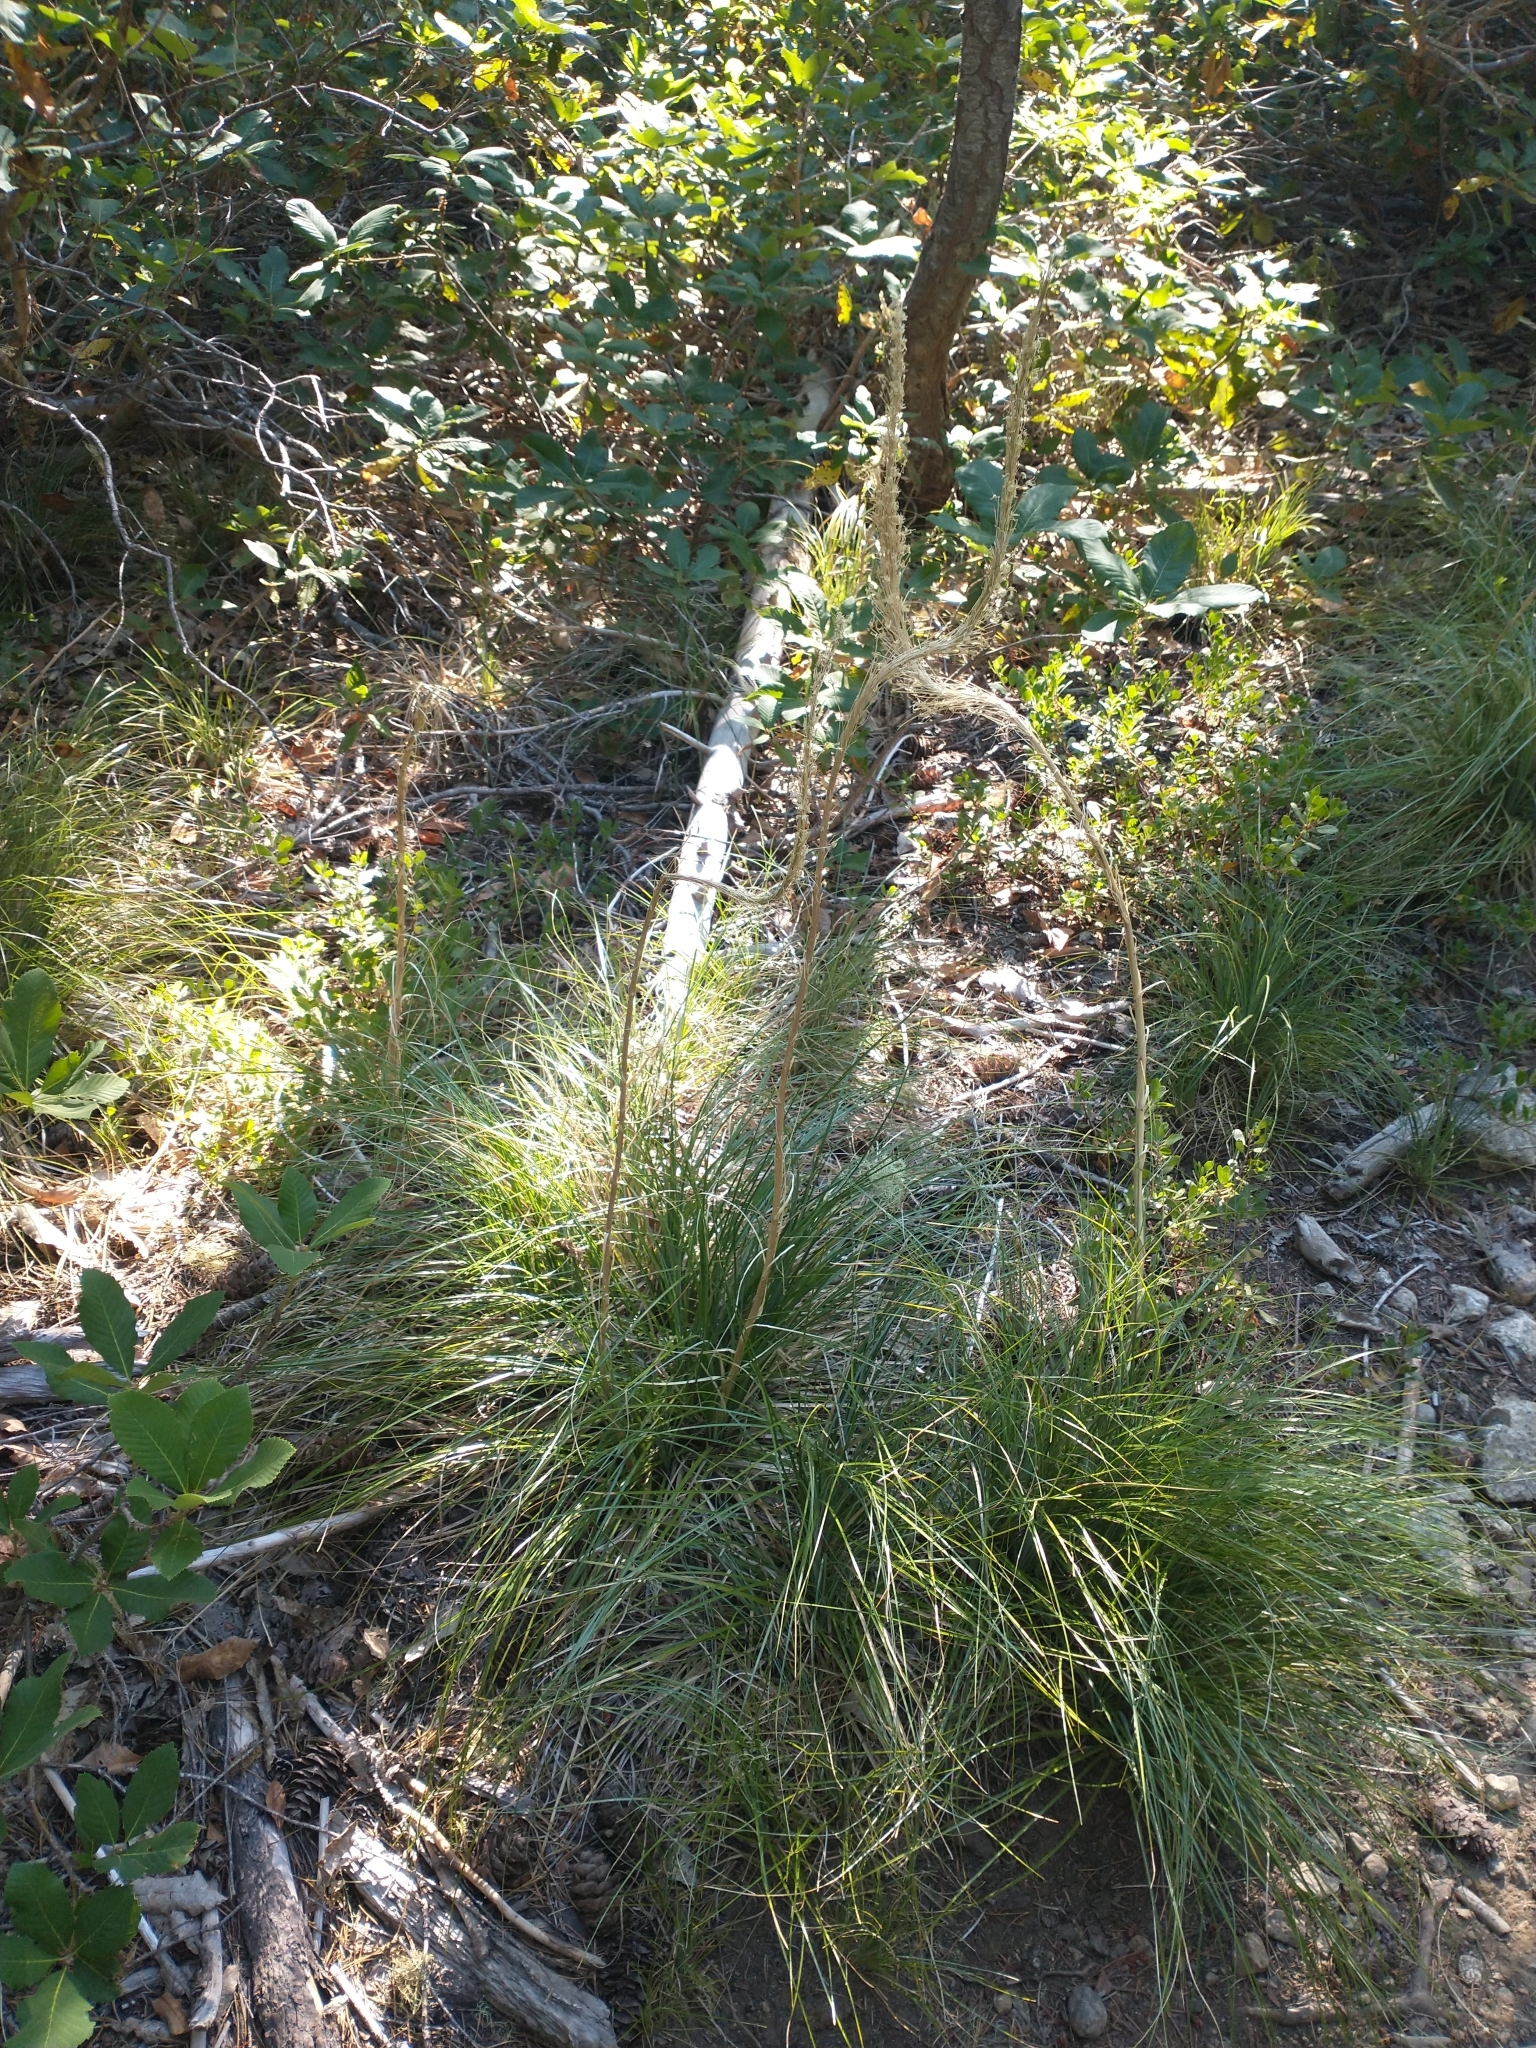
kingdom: Plantae
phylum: Tracheophyta
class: Liliopsida
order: Liliales
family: Melanthiaceae
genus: Xerophyllum
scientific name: Xerophyllum tenax
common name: Bear-grass
